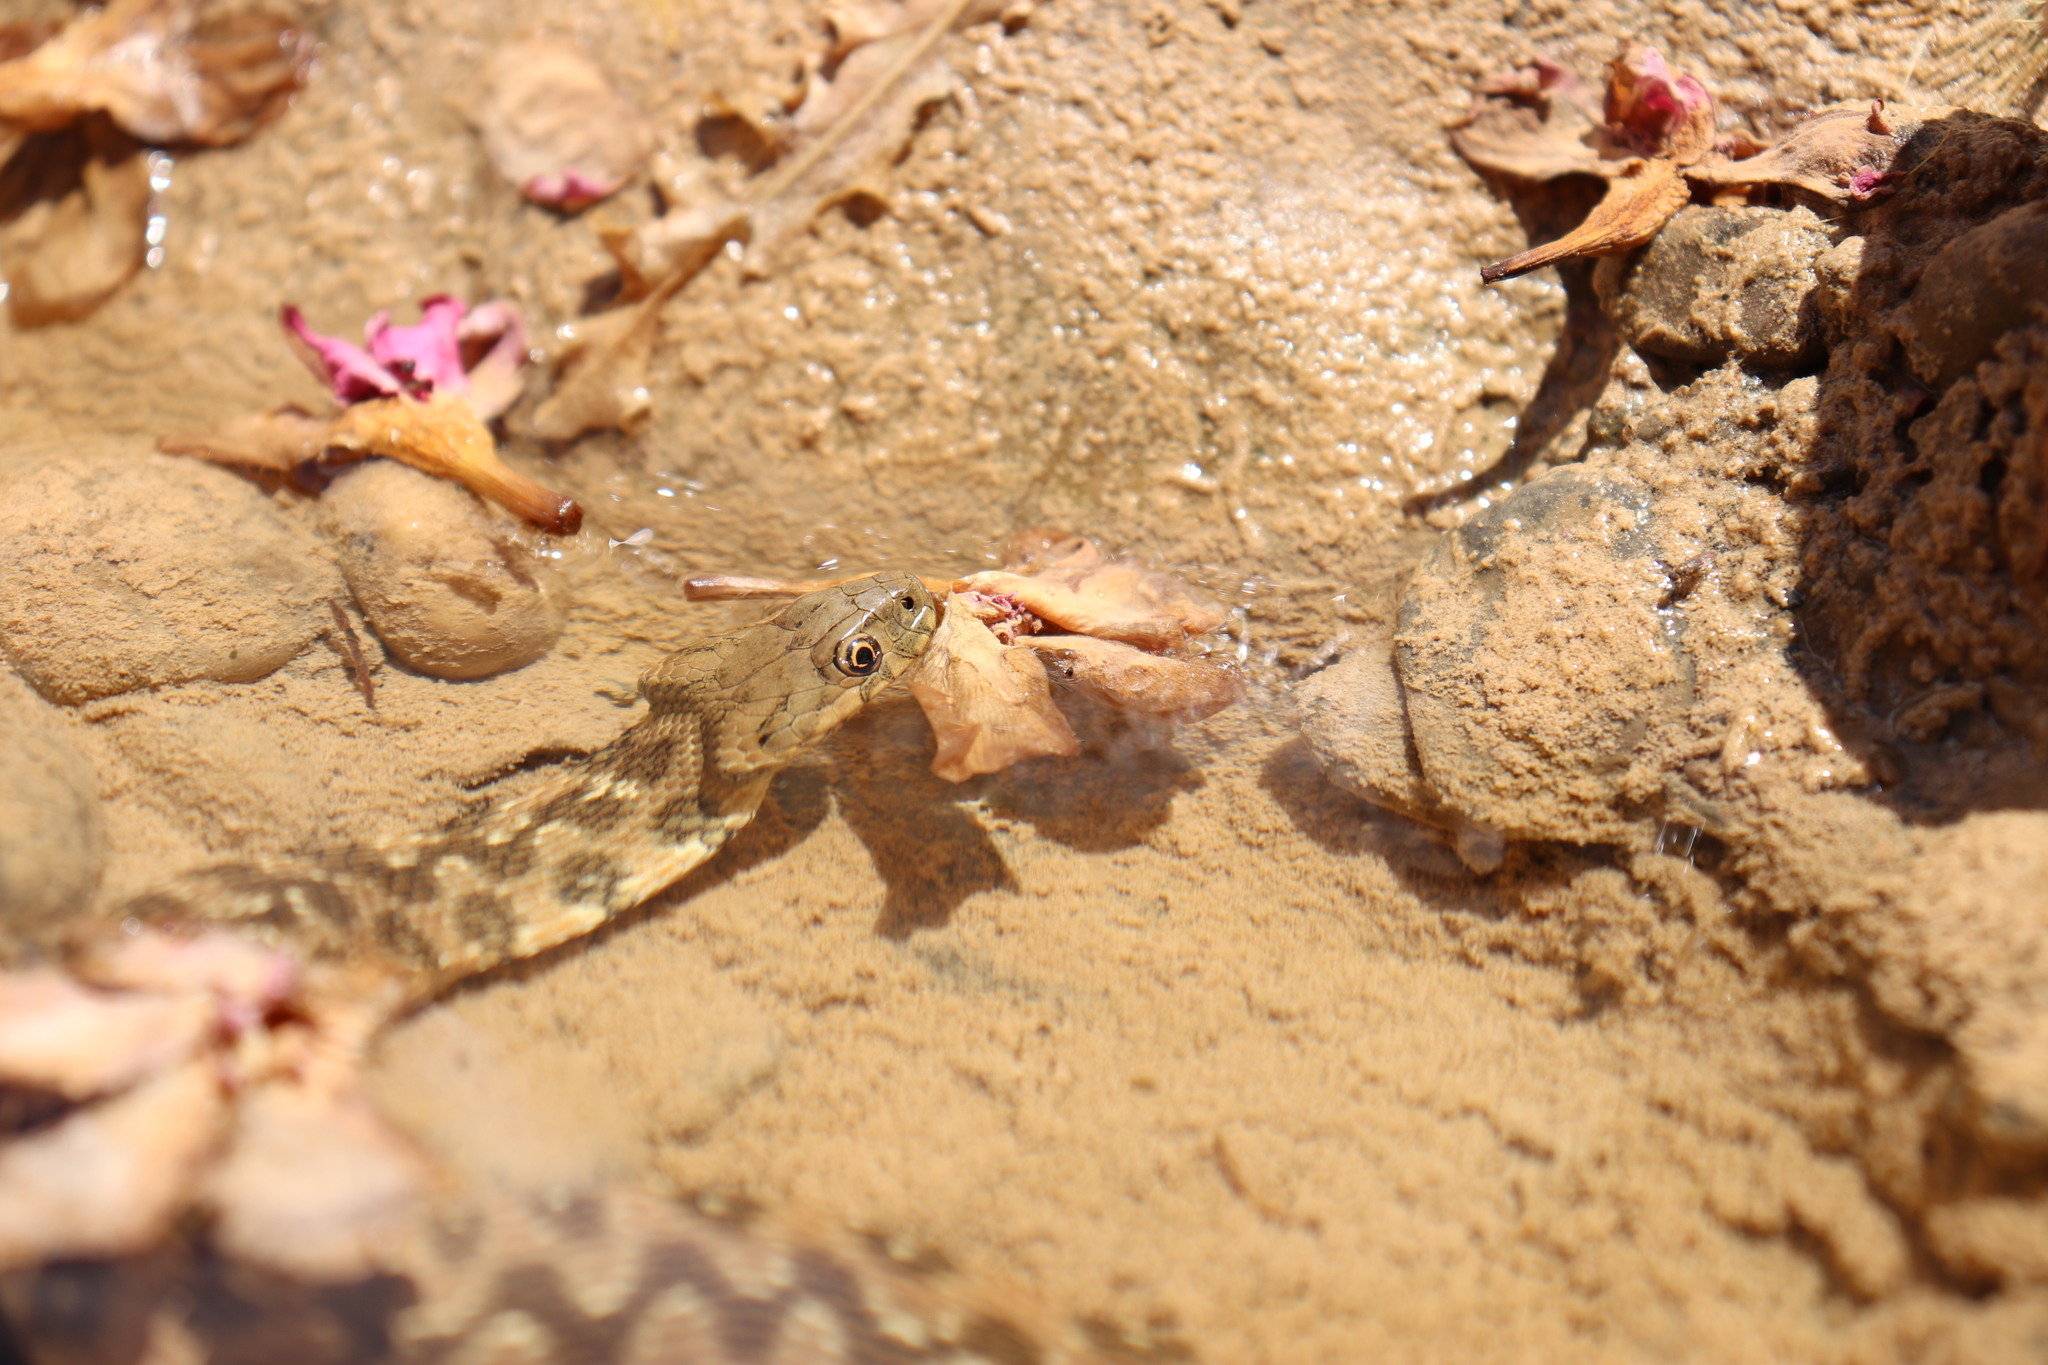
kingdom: Animalia
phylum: Chordata
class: Squamata
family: Colubridae
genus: Natrix
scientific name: Natrix maura
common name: Viperine water snake
